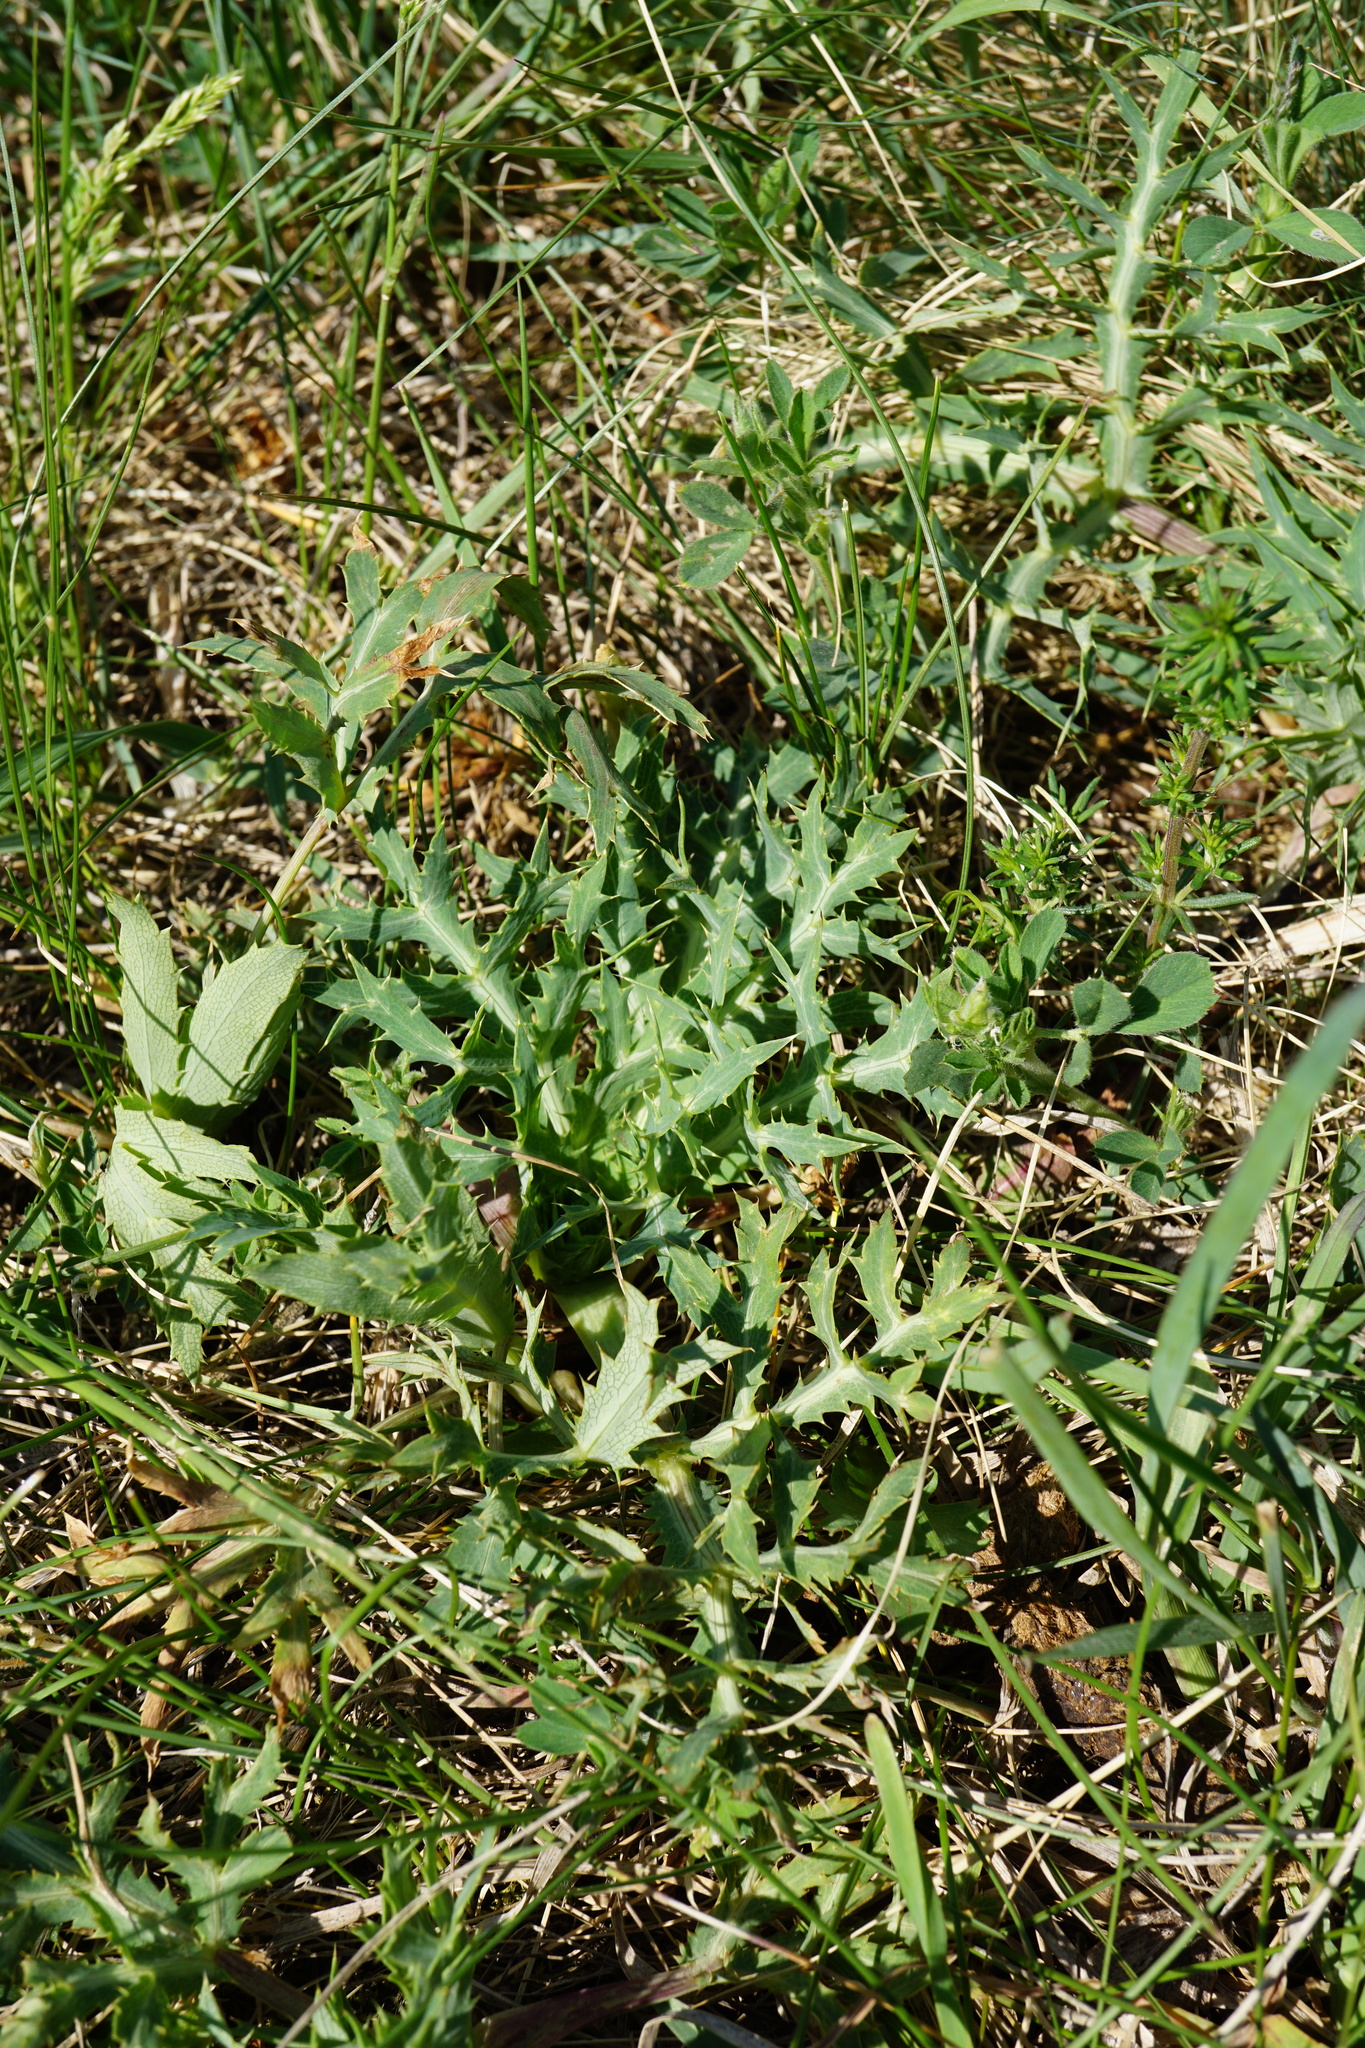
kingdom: Plantae
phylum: Tracheophyta
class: Magnoliopsida
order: Apiales
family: Apiaceae
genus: Eryngium
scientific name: Eryngium campestre
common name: Field eryngo
